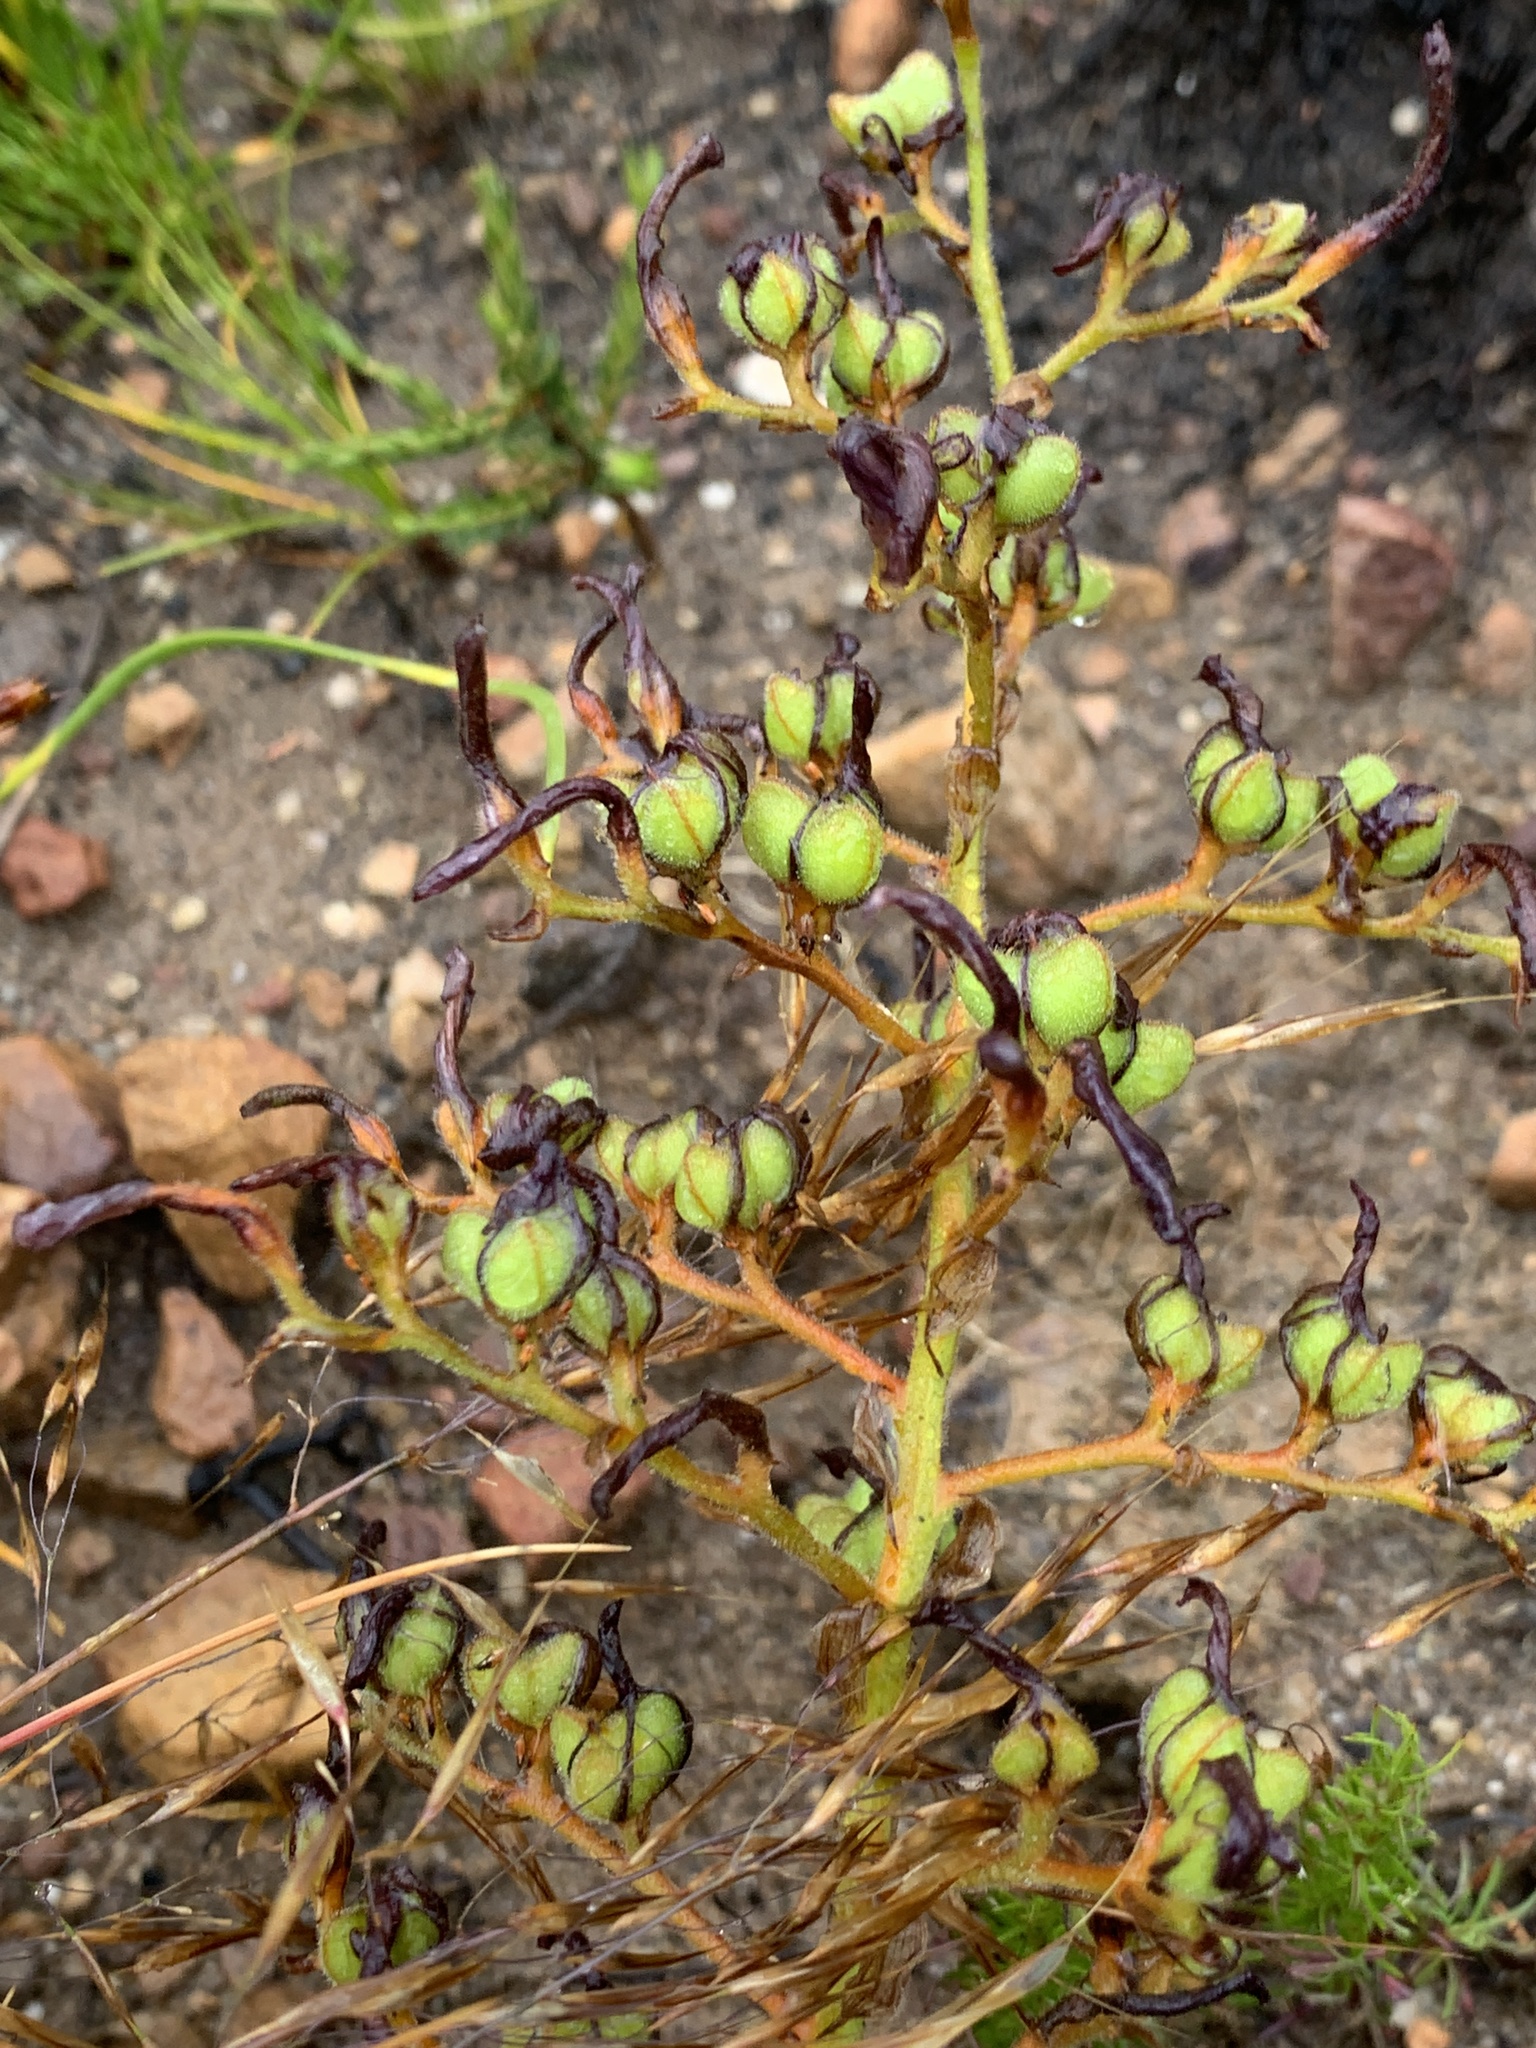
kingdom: Plantae
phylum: Tracheophyta
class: Liliopsida
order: Commelinales
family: Haemodoraceae
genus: Wachendorfia
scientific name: Wachendorfia multiflora
